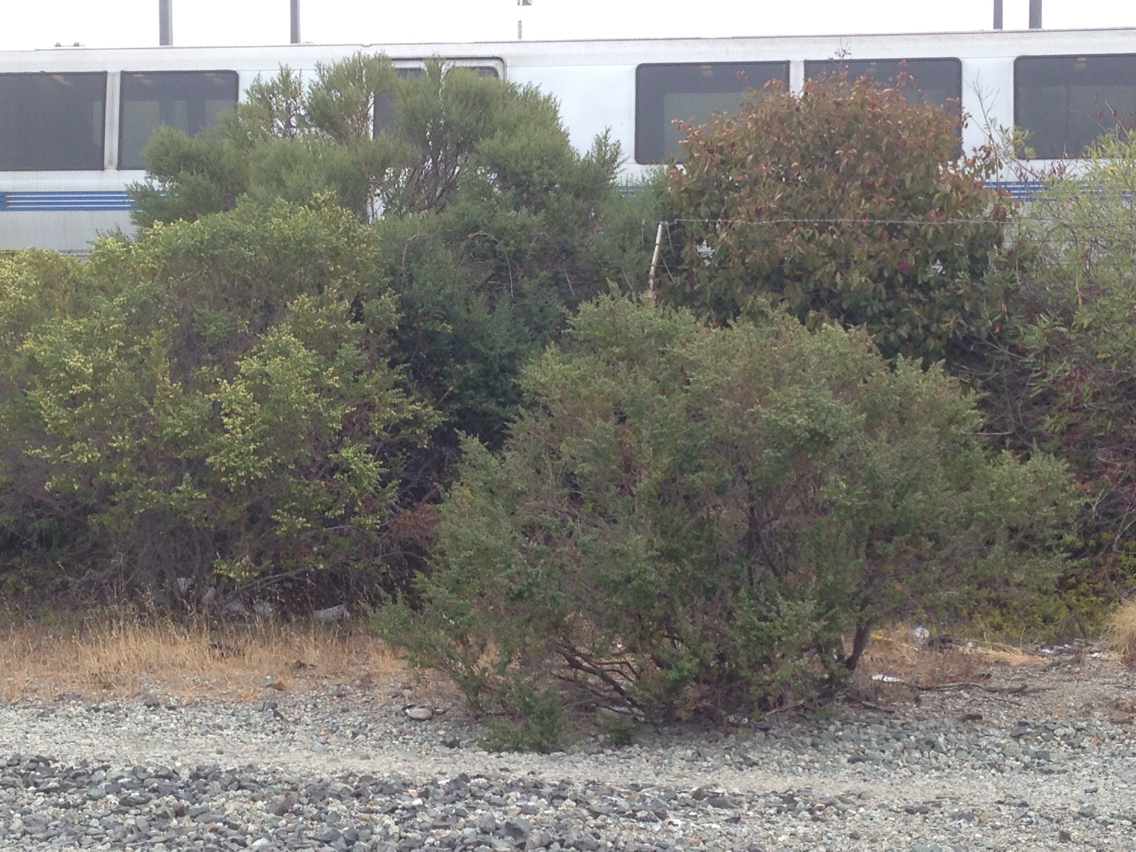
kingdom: Plantae
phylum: Tracheophyta
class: Magnoliopsida
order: Asterales
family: Asteraceae
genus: Baccharis
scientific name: Baccharis pilularis
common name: Coyotebrush
